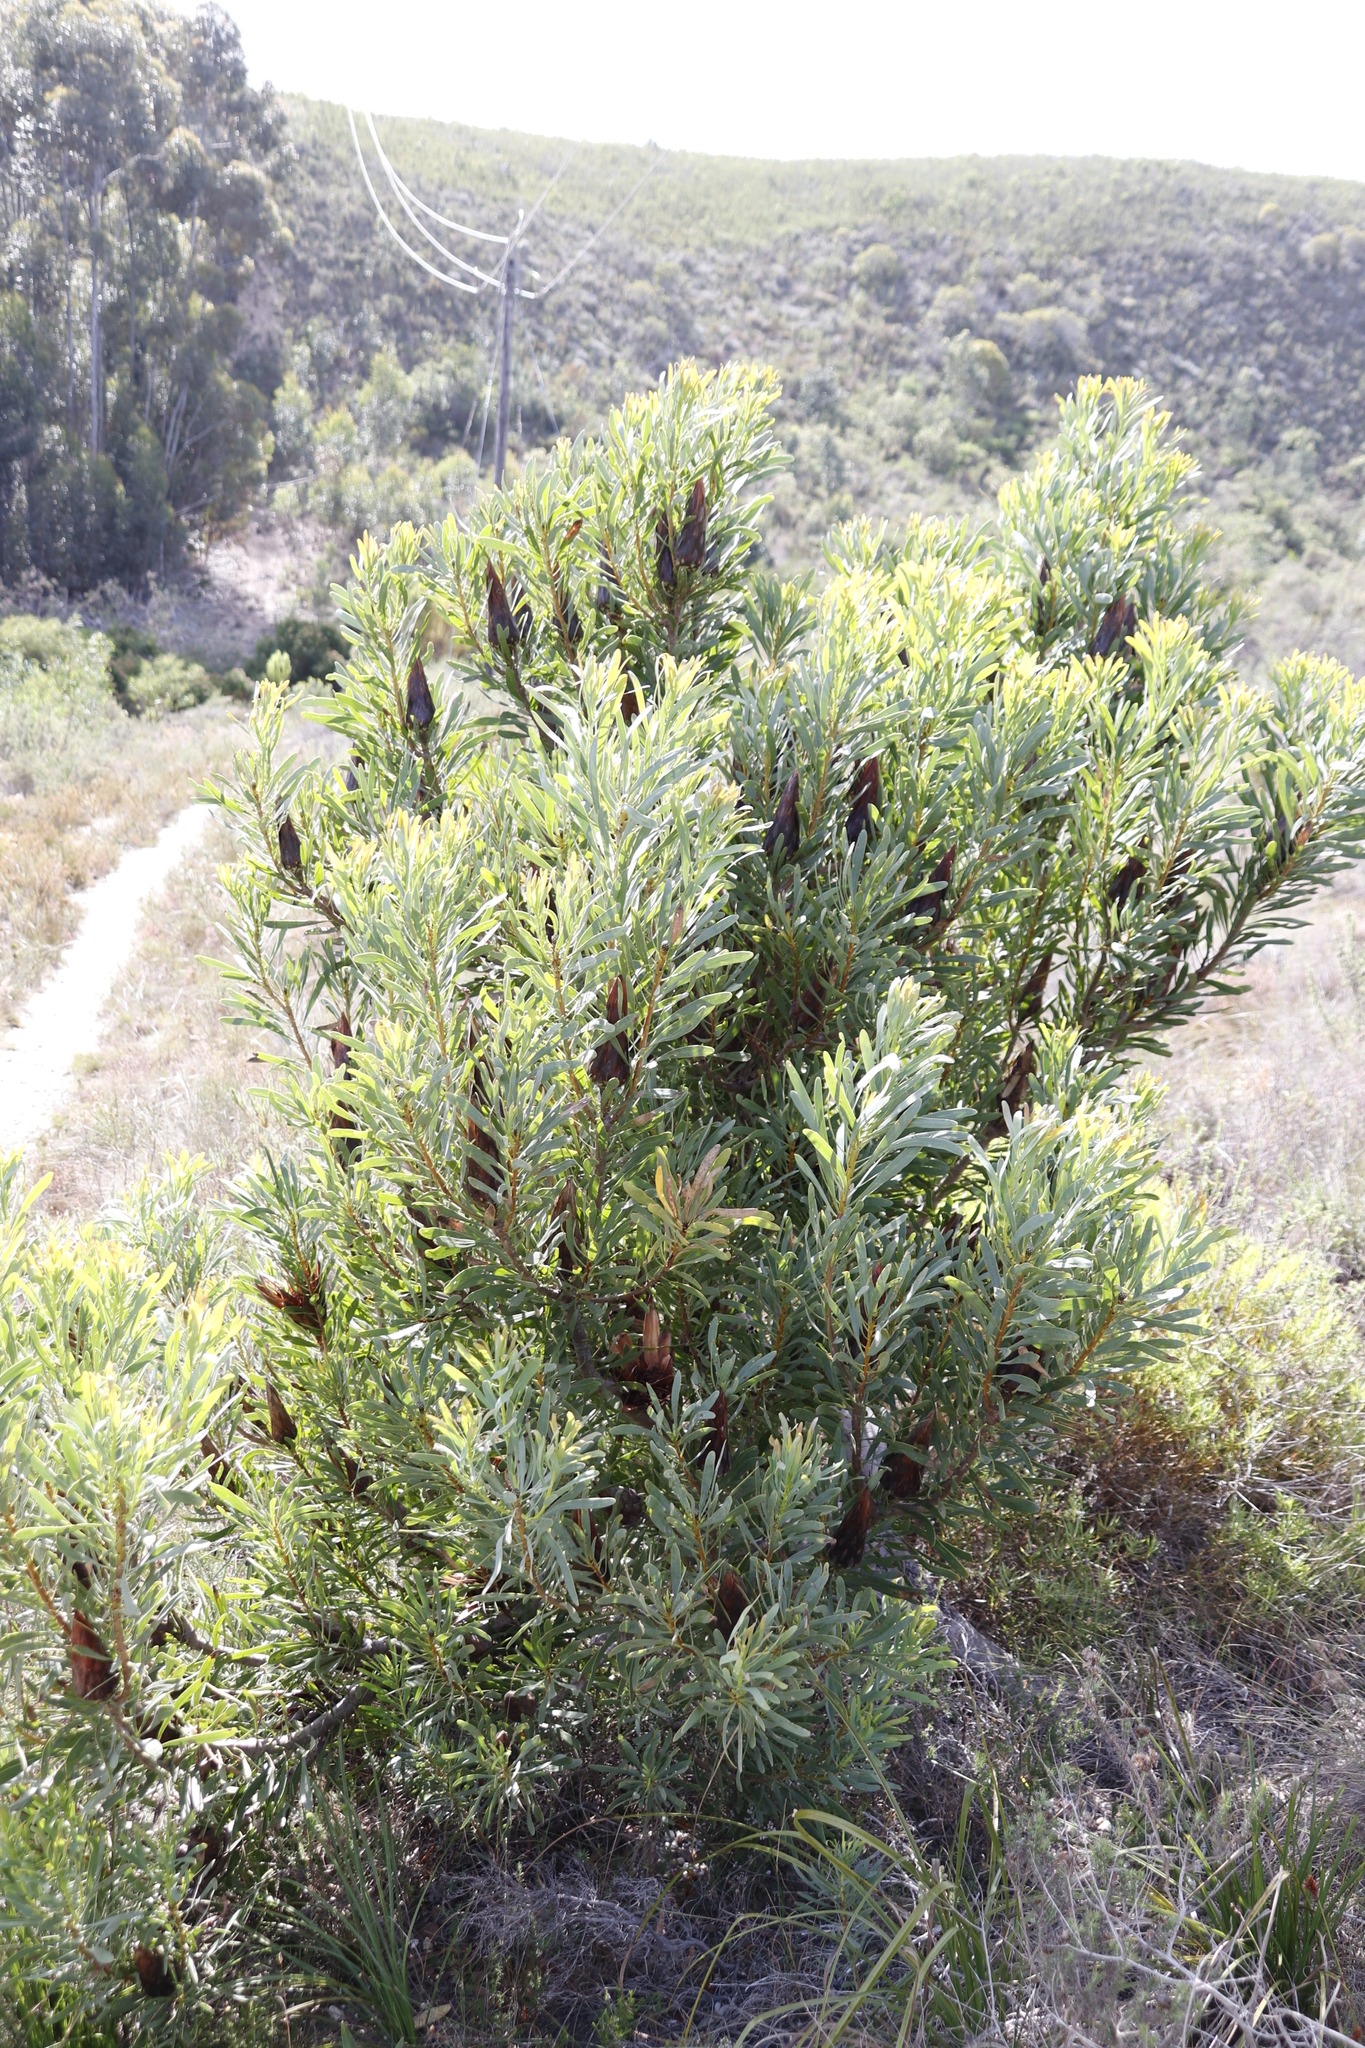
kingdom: Plantae
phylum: Tracheophyta
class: Magnoliopsida
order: Proteales
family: Proteaceae
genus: Protea
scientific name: Protea repens
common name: Sugarbush
